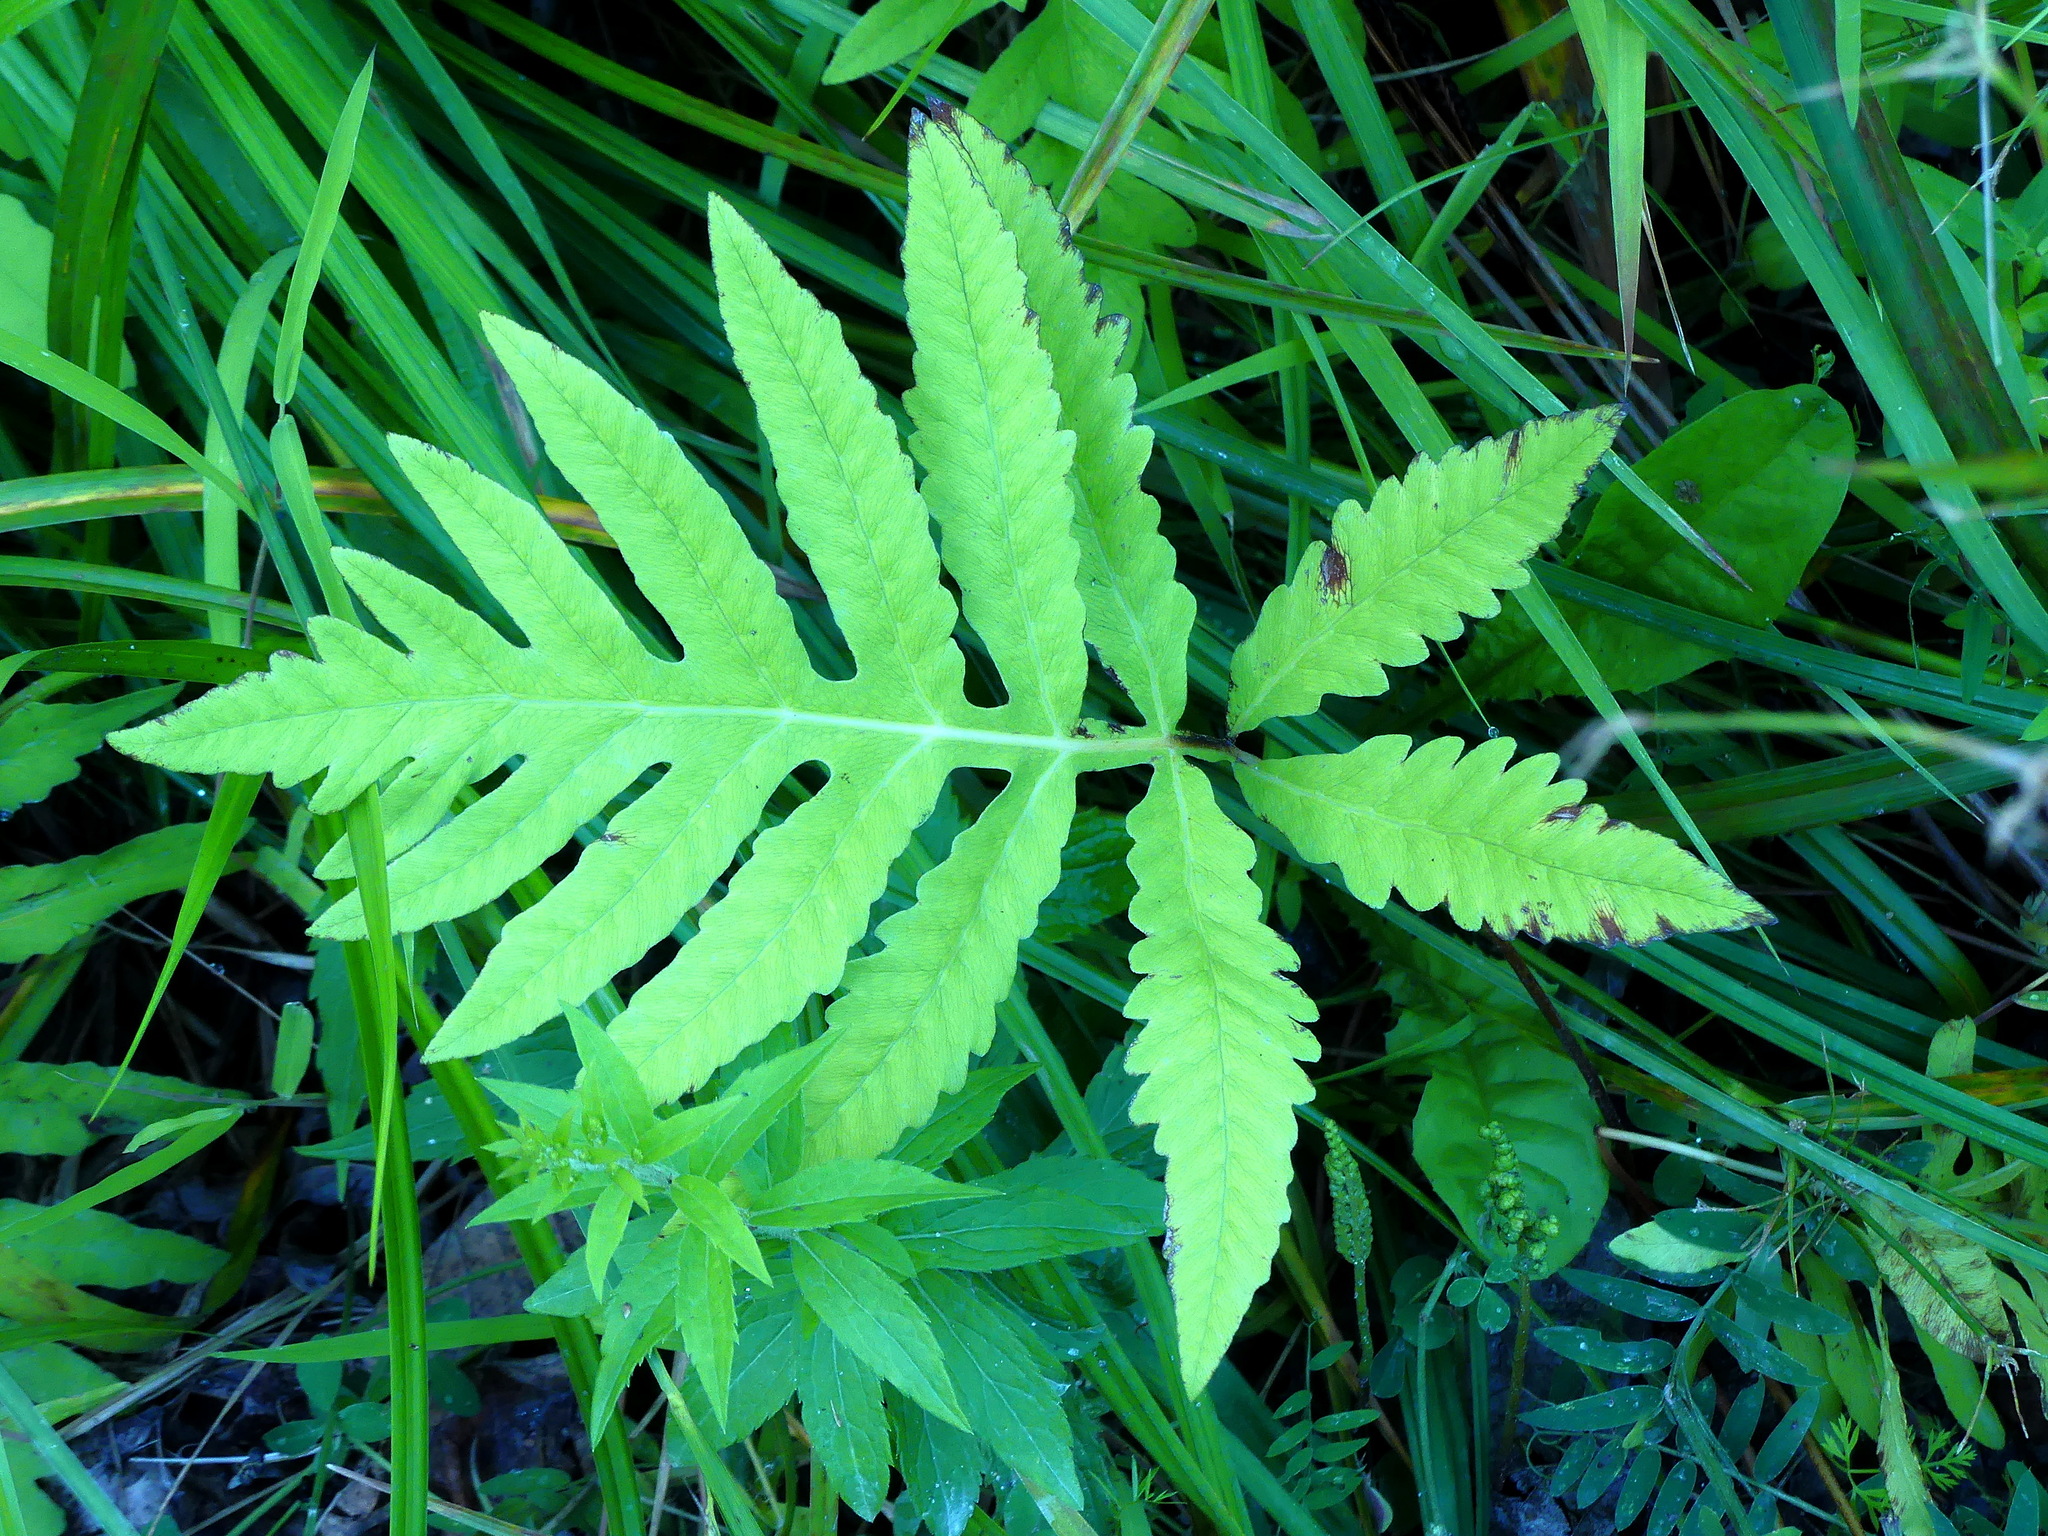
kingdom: Plantae
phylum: Tracheophyta
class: Polypodiopsida
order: Polypodiales
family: Onocleaceae
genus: Onoclea
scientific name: Onoclea sensibilis
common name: Sensitive fern
